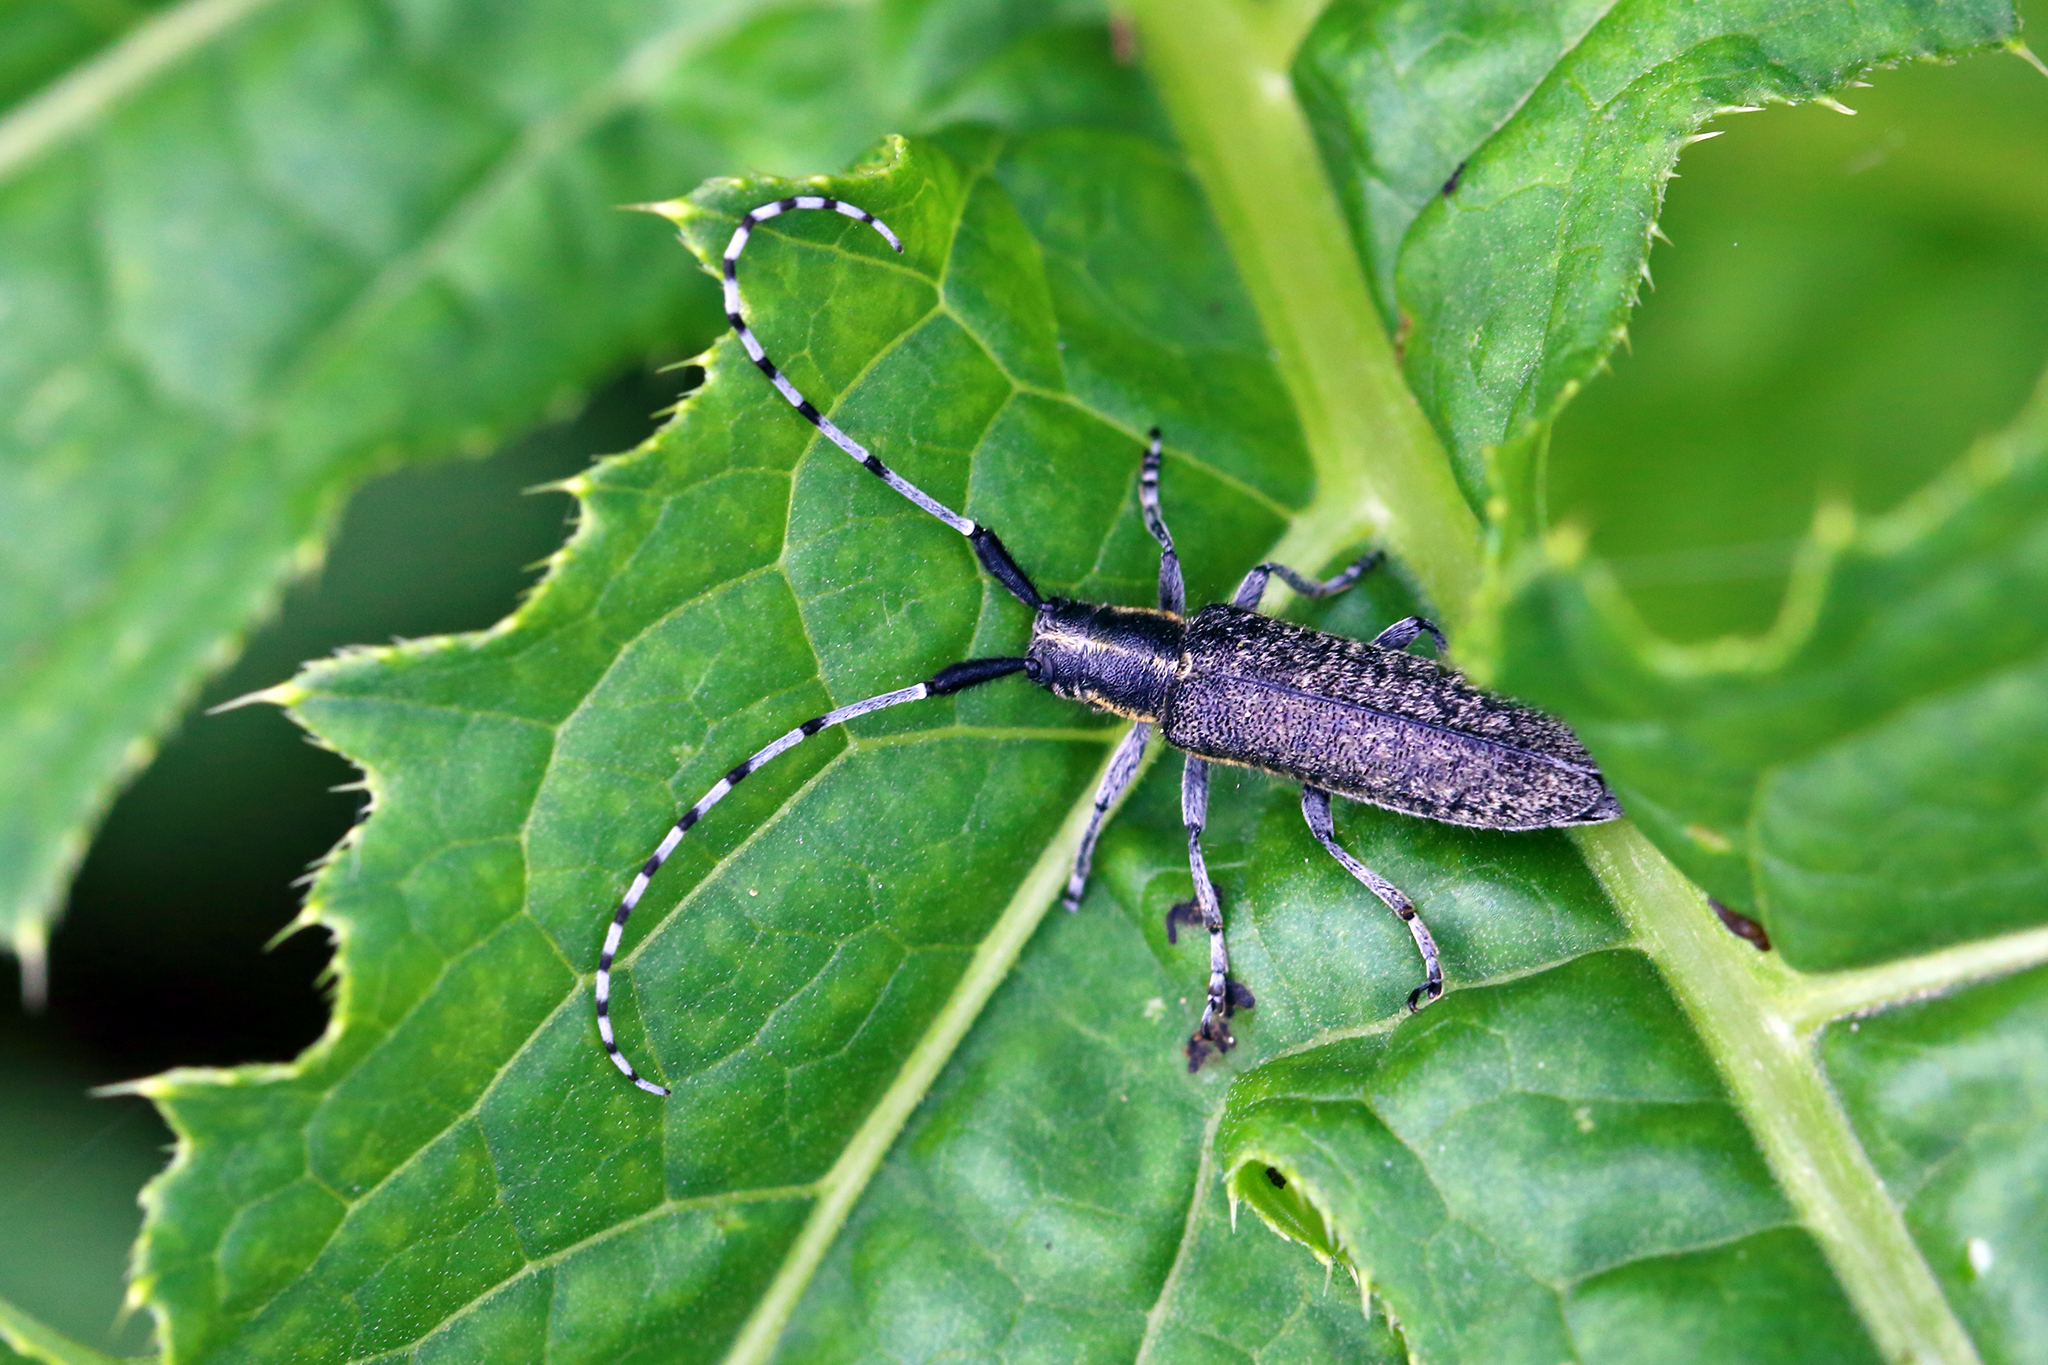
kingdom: Animalia
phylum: Arthropoda
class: Insecta
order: Coleoptera
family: Cerambycidae
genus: Agapanthia
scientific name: Agapanthia villosoviridescens
